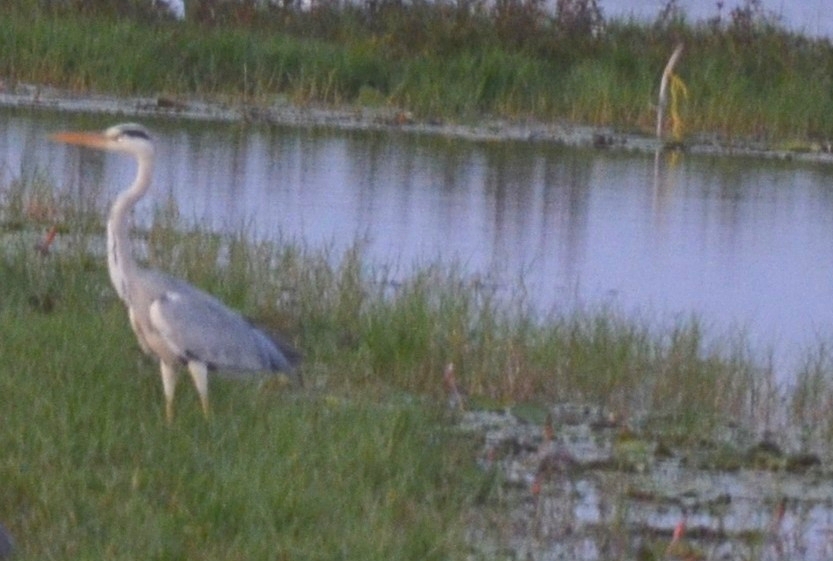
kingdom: Animalia
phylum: Chordata
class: Aves
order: Pelecaniformes
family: Ardeidae
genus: Ardea
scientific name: Ardea cinerea
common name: Grey heron
